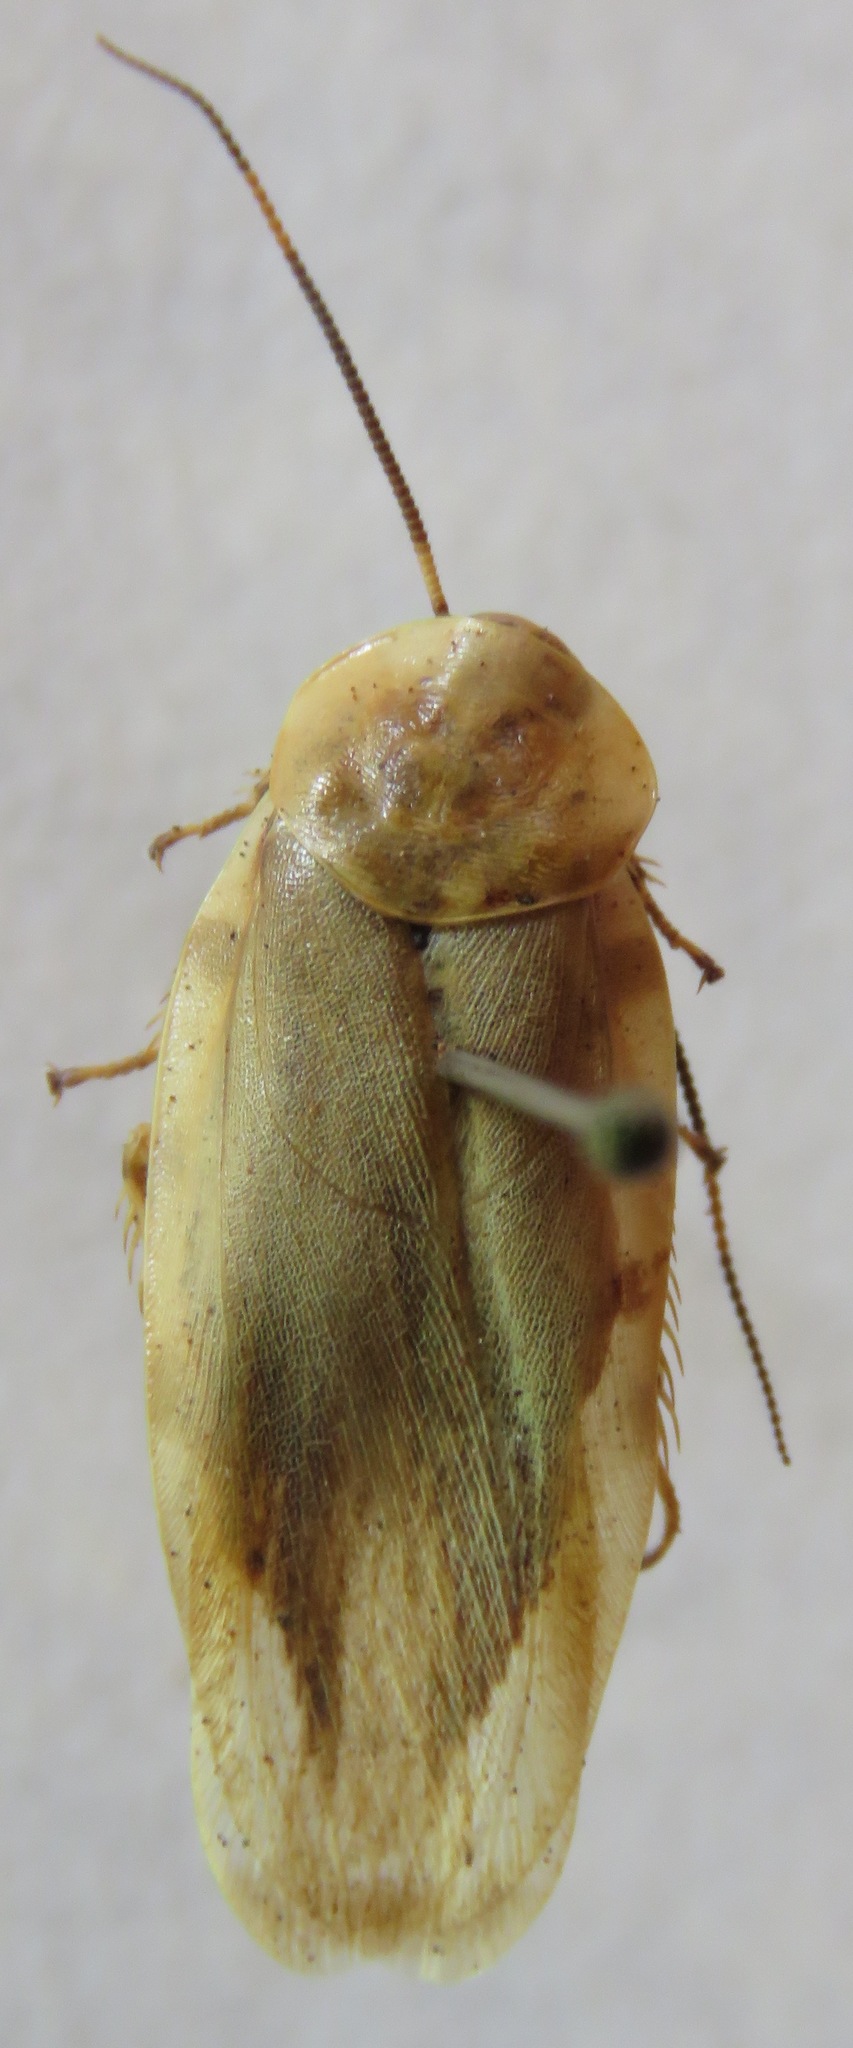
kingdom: Animalia
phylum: Arthropoda
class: Insecta
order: Blattodea
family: Blaberidae
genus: Achroblatta
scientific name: Achroblatta luteola
